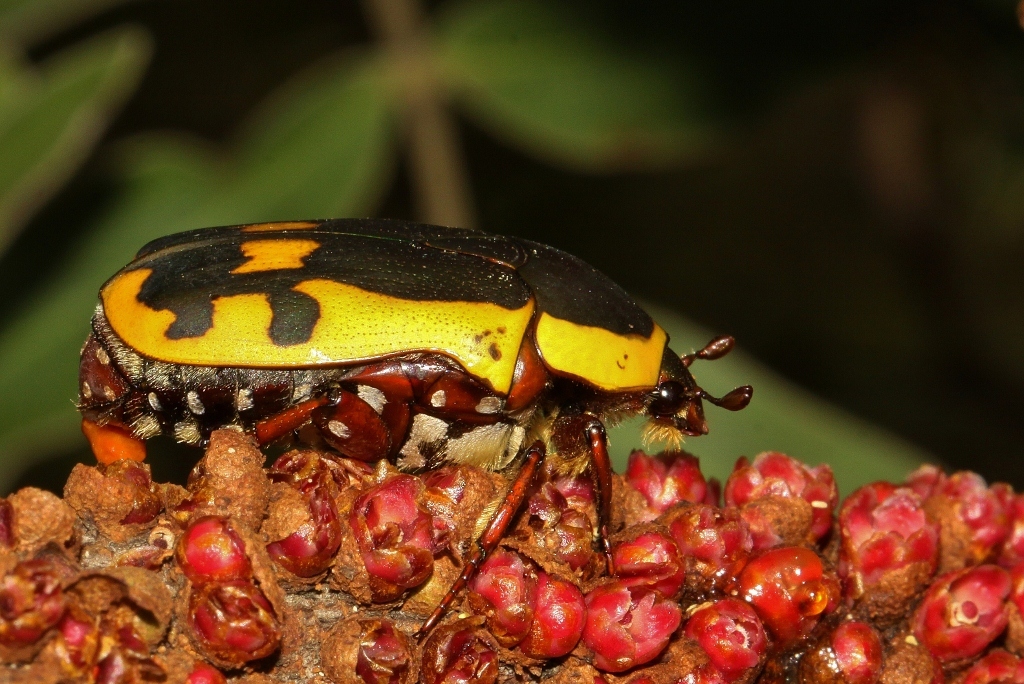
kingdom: Animalia
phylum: Arthropoda
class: Insecta
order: Coleoptera
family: Scarabaeidae
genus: Marmylida
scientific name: Marmylida impressa
